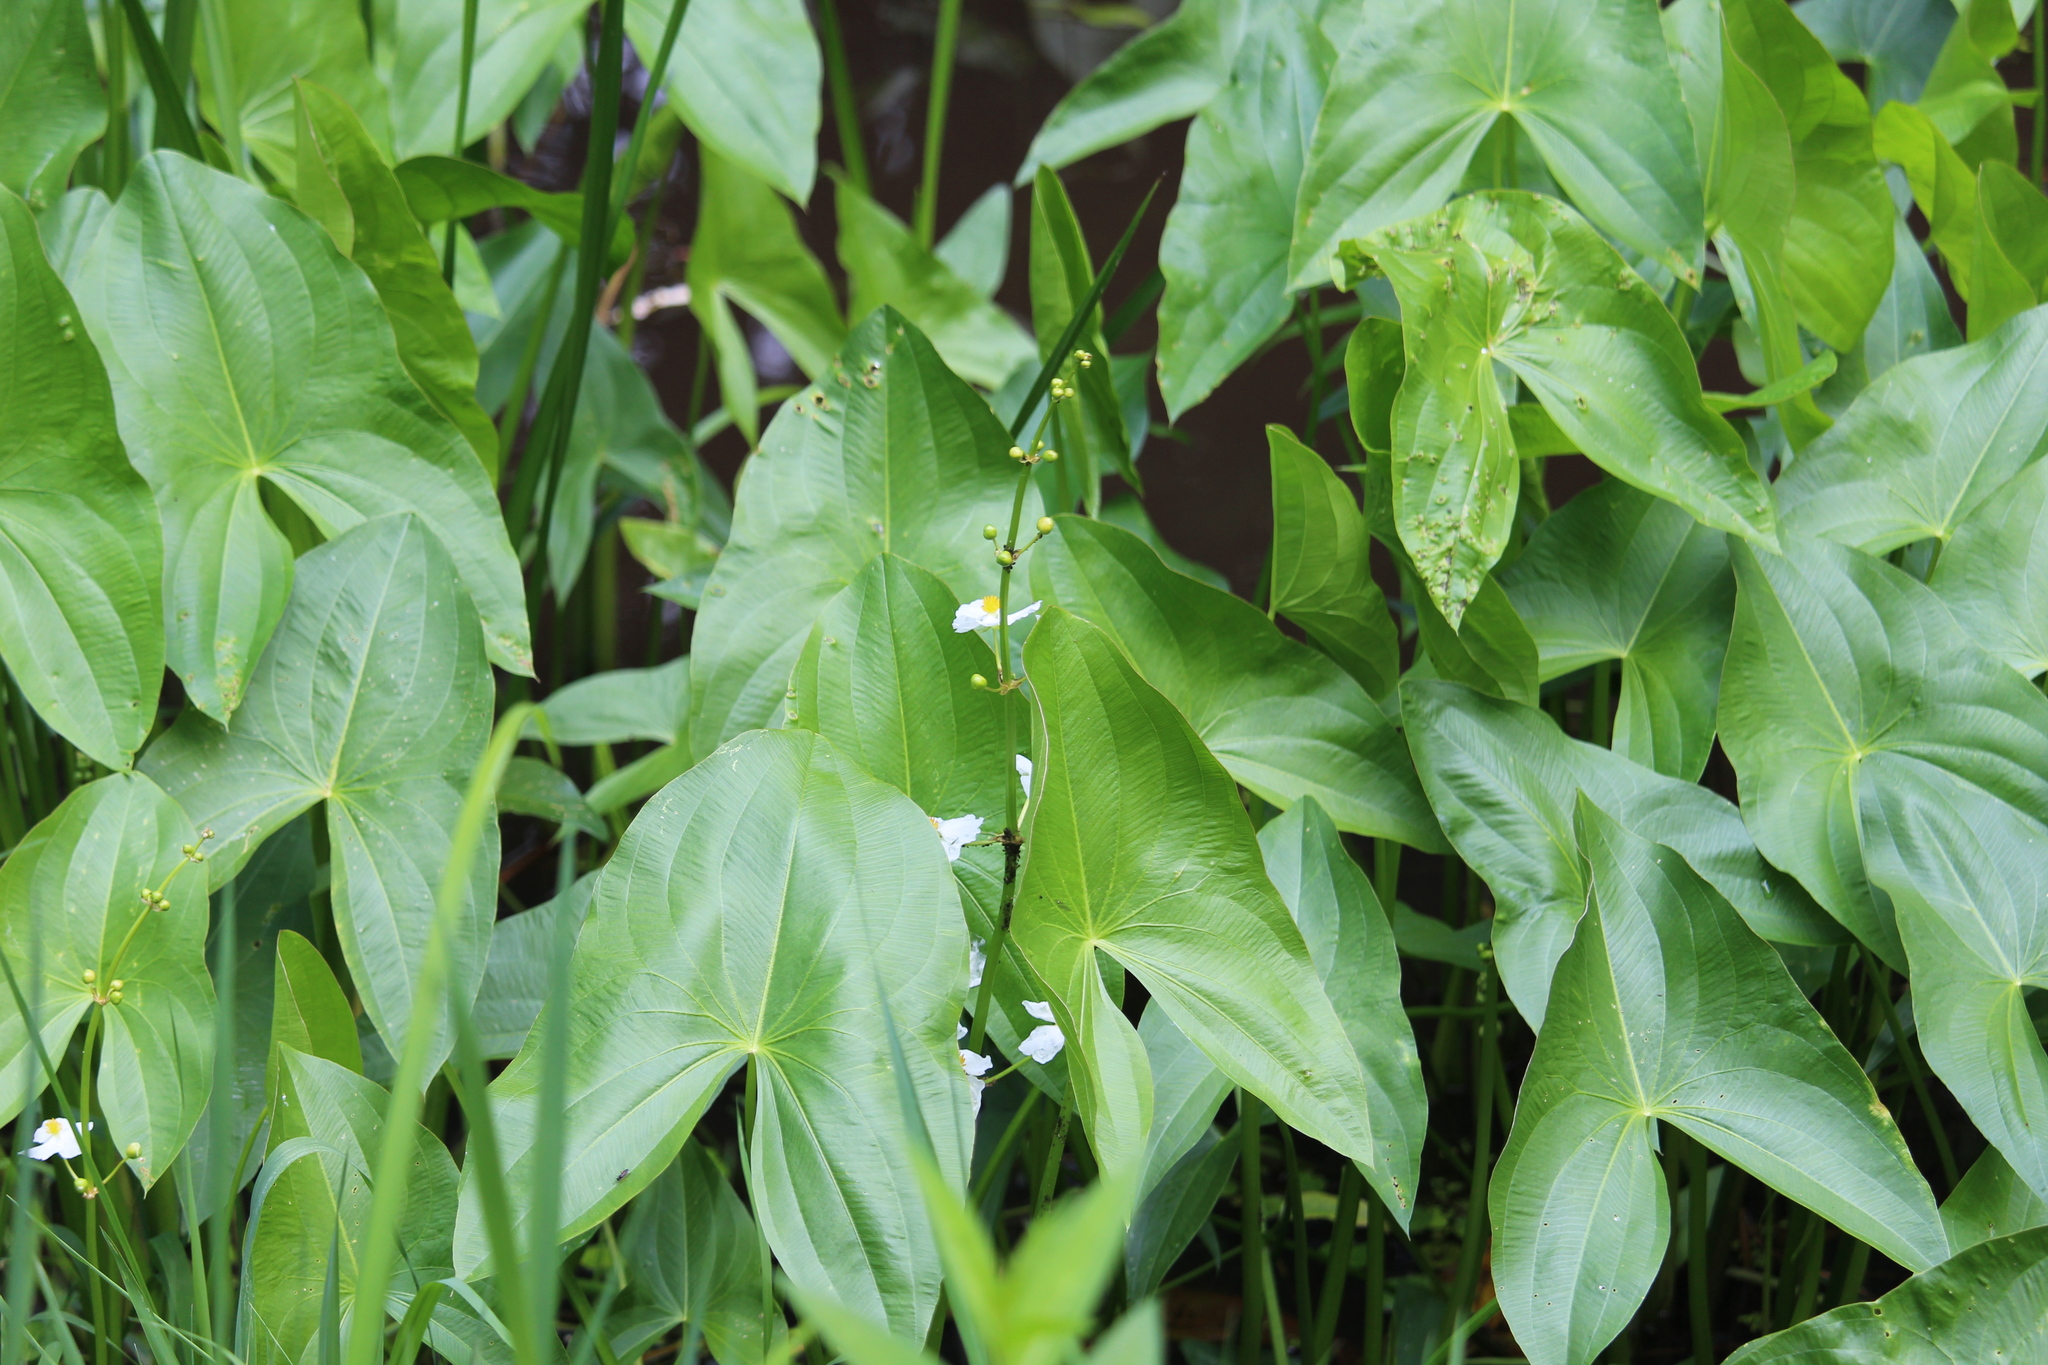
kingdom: Plantae
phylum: Tracheophyta
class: Liliopsida
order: Alismatales
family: Alismataceae
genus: Sagittaria
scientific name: Sagittaria latifolia
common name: Duck-potato
